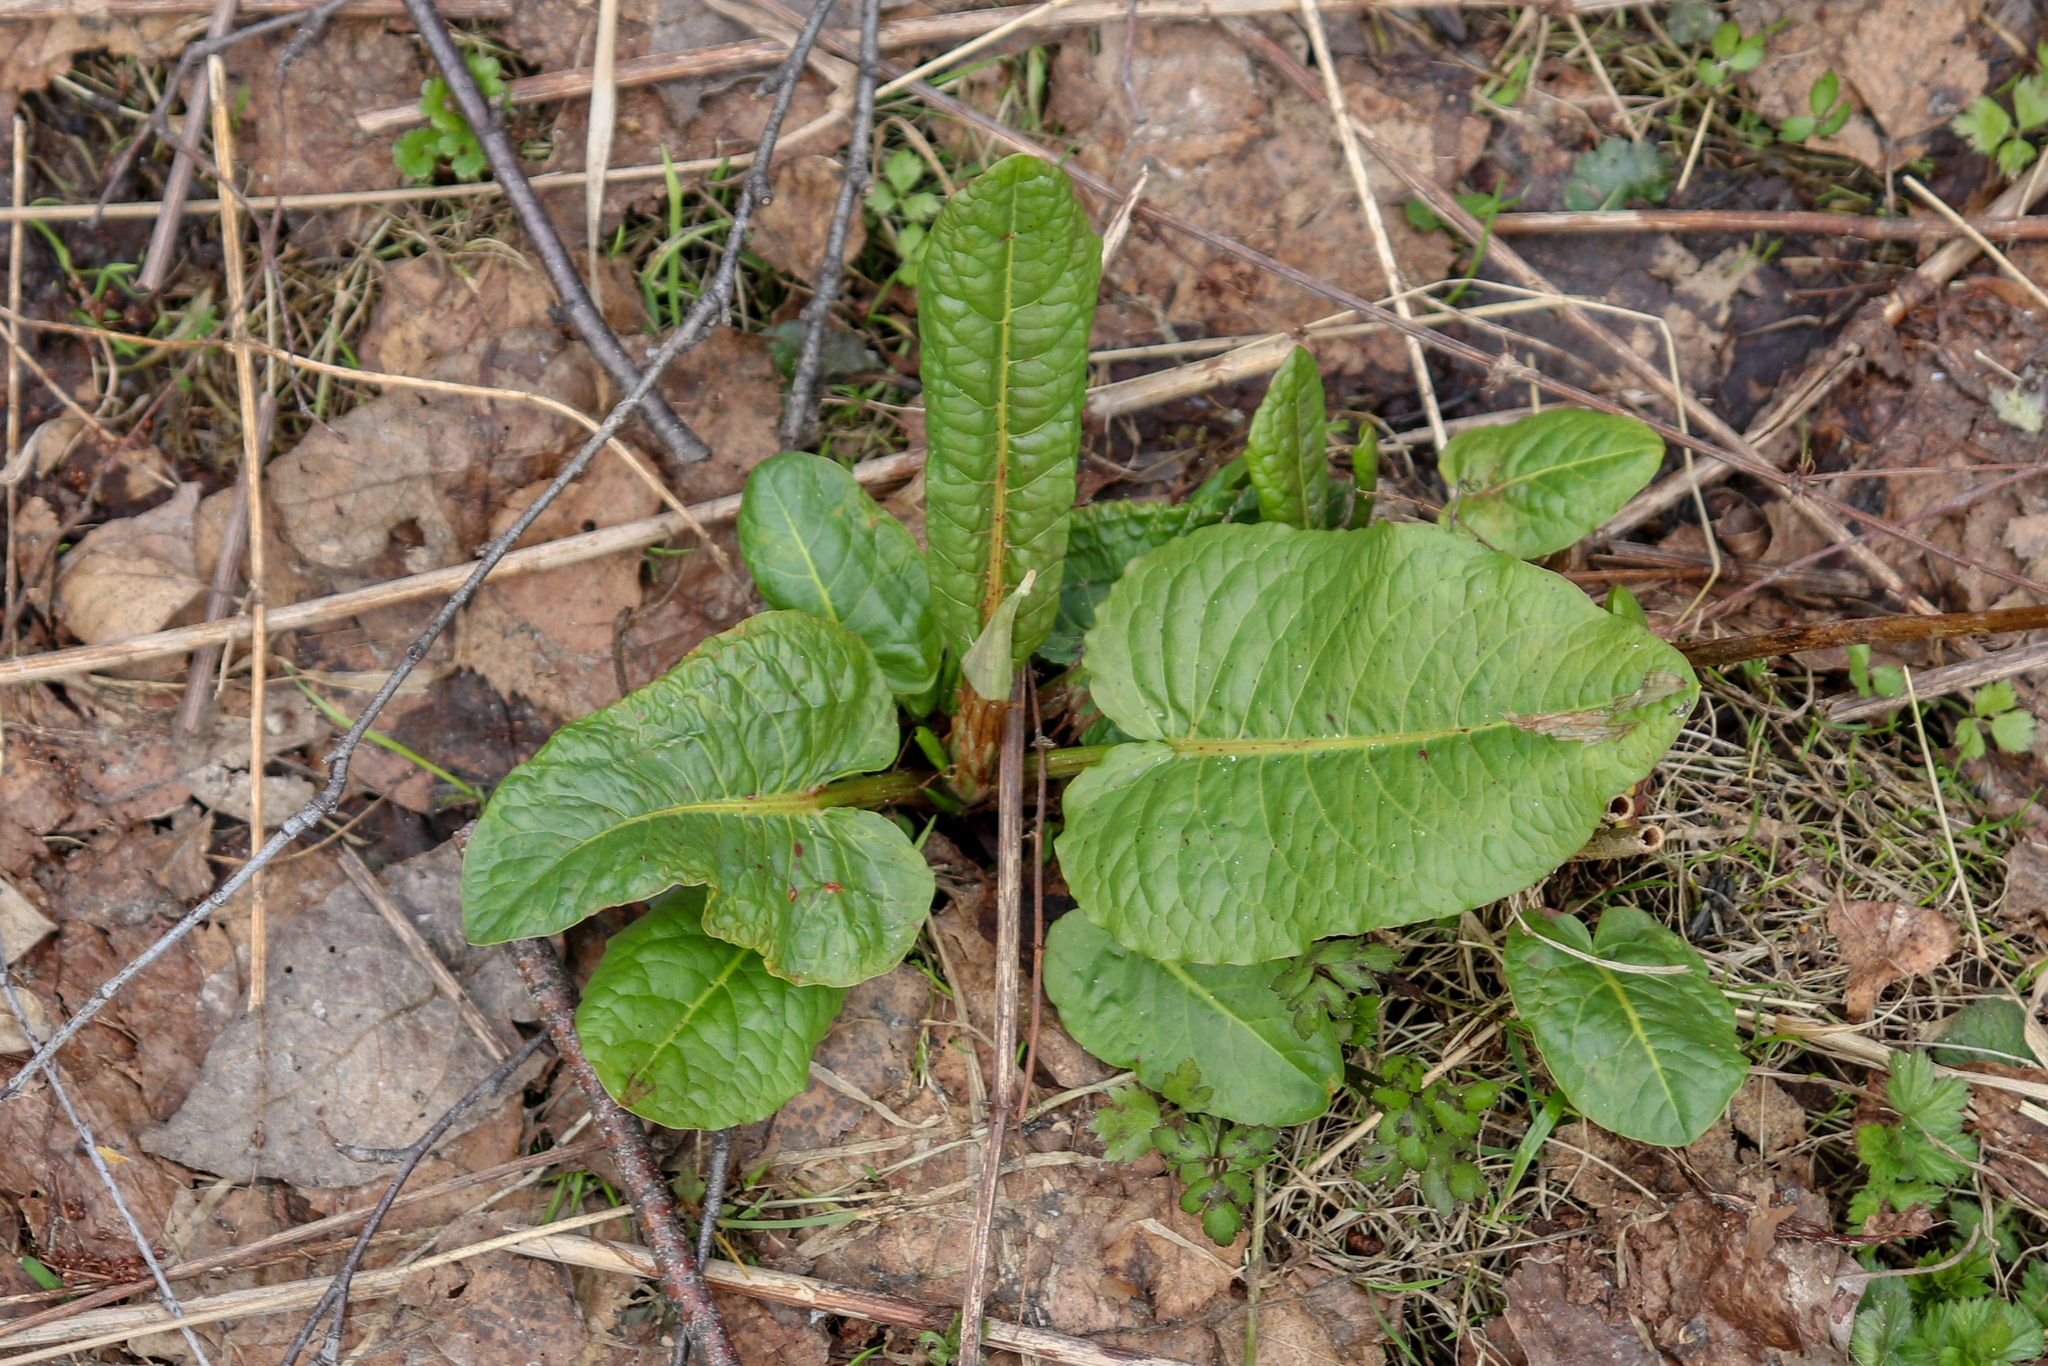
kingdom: Plantae
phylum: Tracheophyta
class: Magnoliopsida
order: Caryophyllales
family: Polygonaceae
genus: Rumex
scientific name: Rumex obtusifolius
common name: Bitter dock
